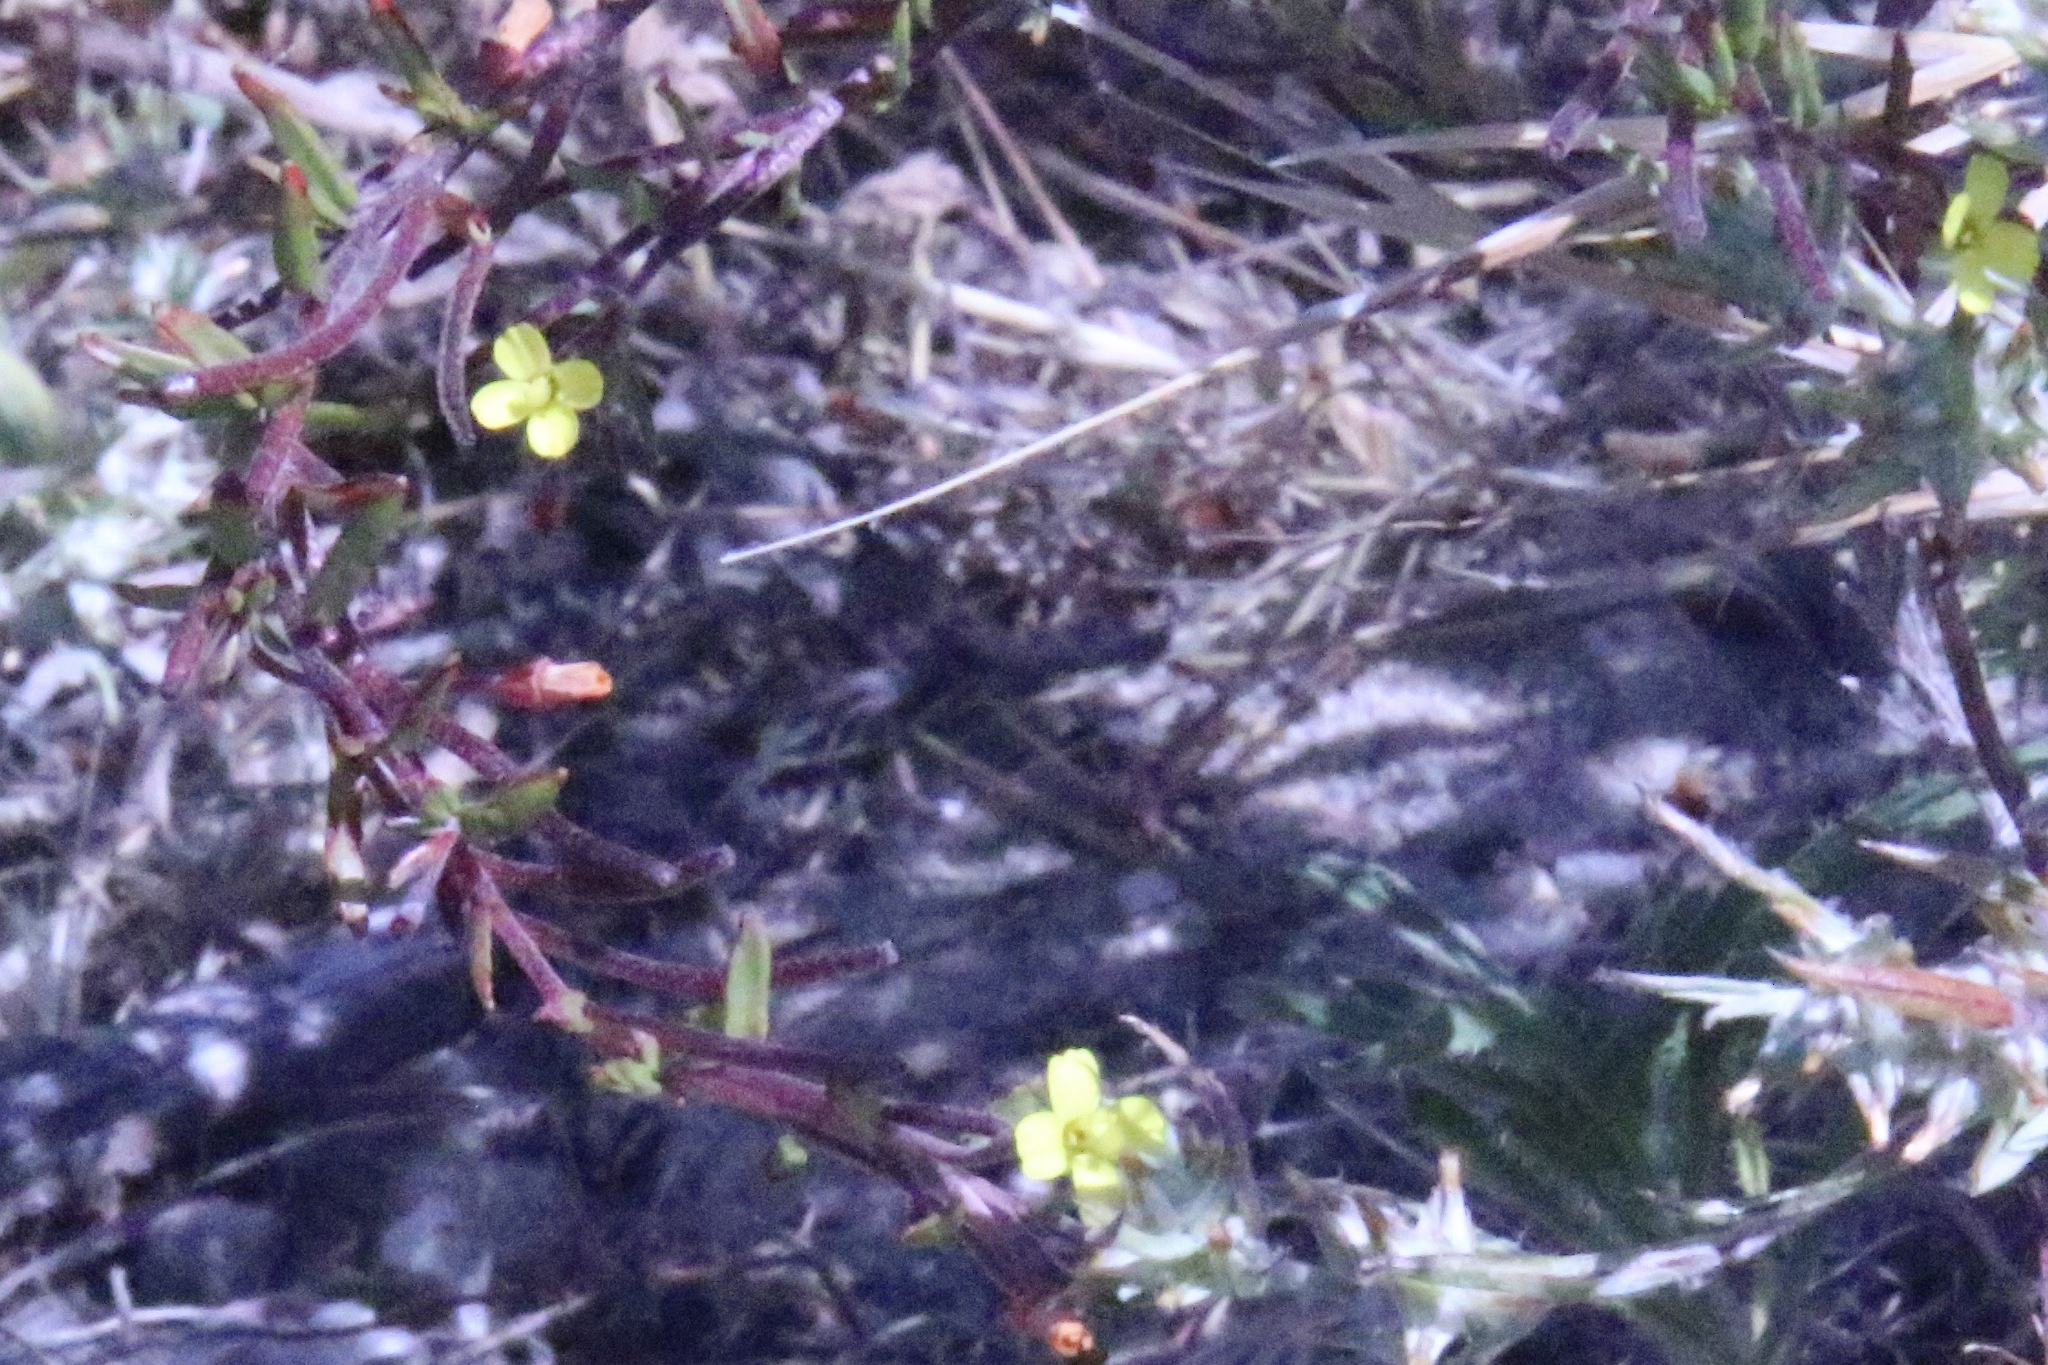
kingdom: Plantae
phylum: Tracheophyta
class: Magnoliopsida
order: Myrtales
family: Onagraceae
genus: Camissonia
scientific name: Camissonia strigulosa
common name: Contorted-primrose
